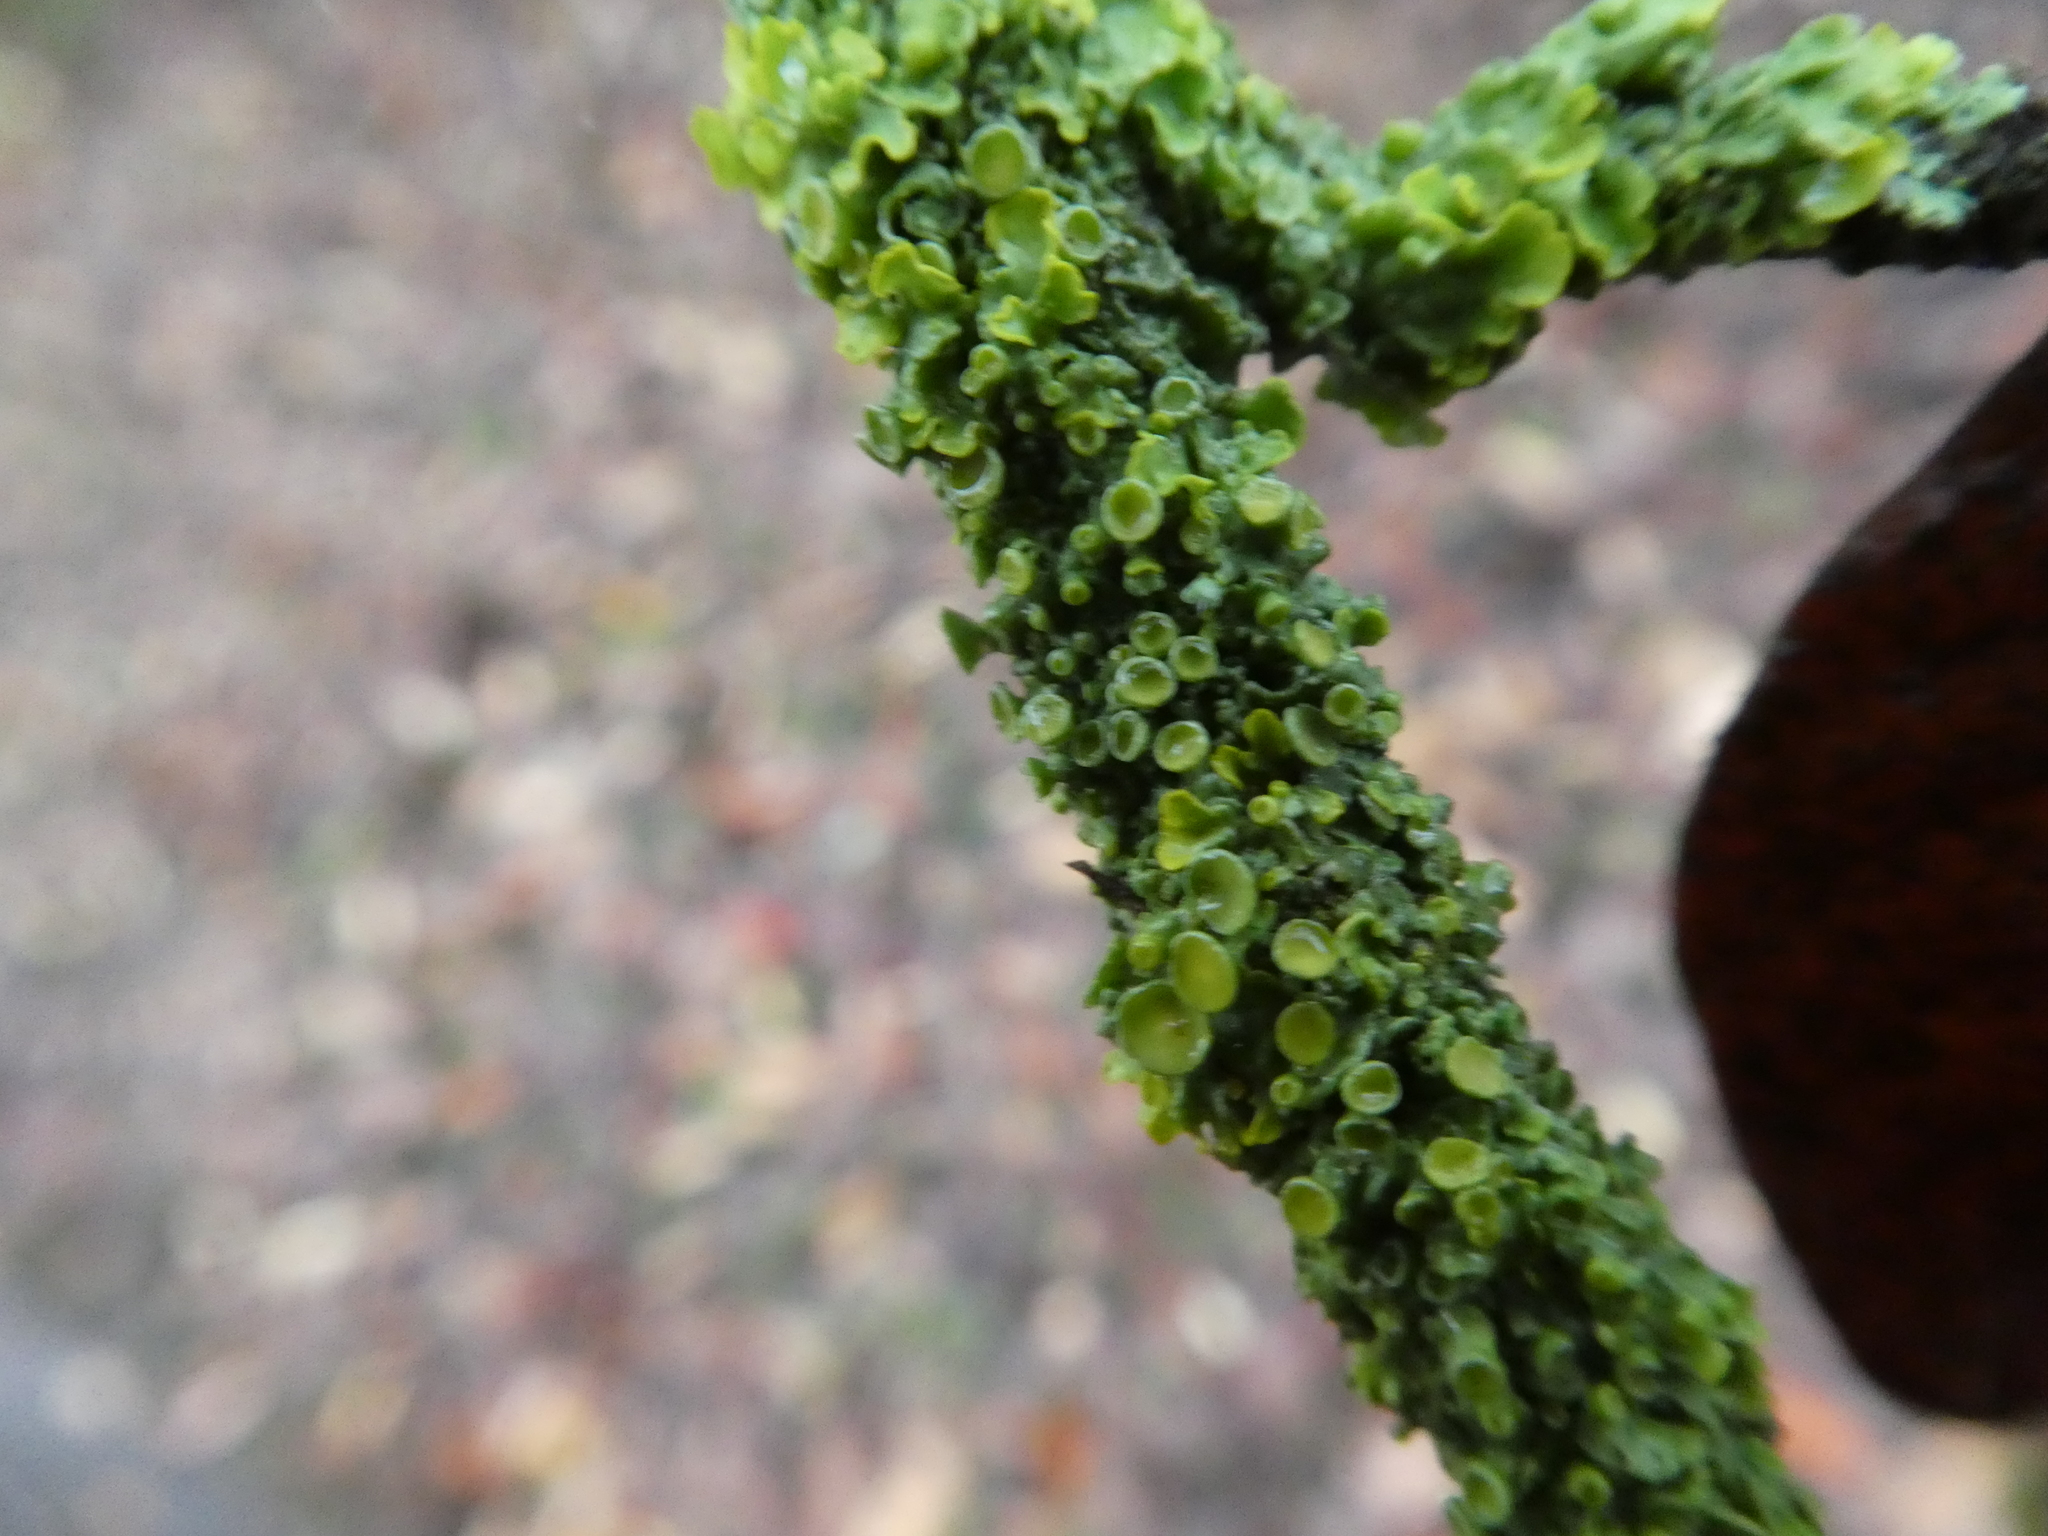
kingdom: Fungi
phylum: Ascomycota
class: Lecanoromycetes
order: Teloschistales
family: Teloschistaceae
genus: Xanthoria
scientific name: Xanthoria parietina
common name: Common orange lichen
